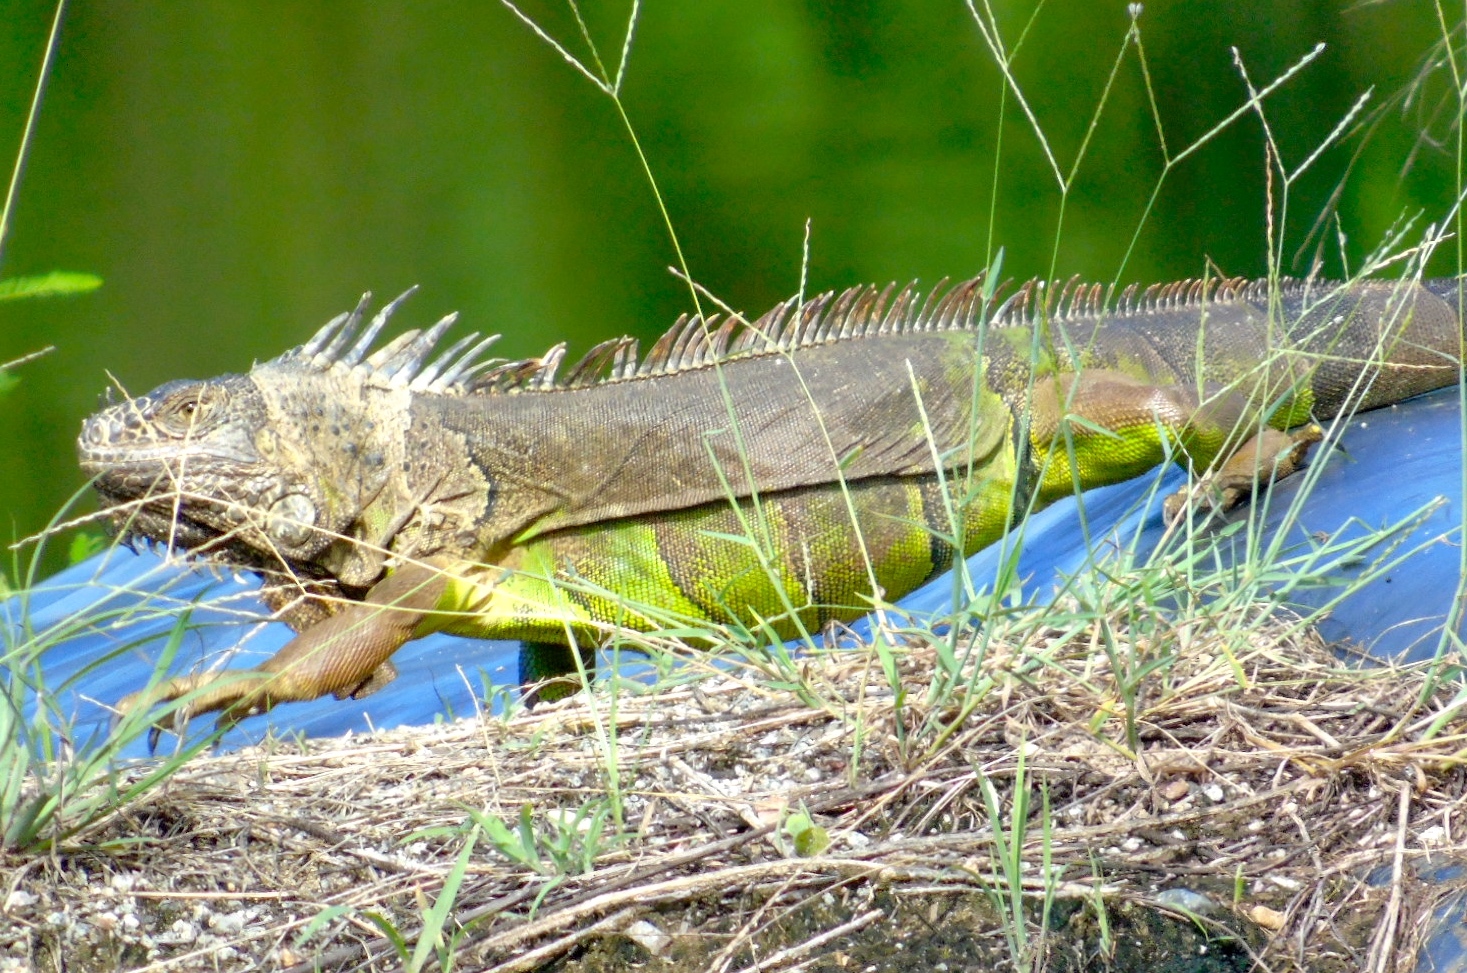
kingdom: Animalia
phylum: Chordata
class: Squamata
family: Iguanidae
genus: Iguana
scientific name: Iguana iguana
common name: Green iguana
